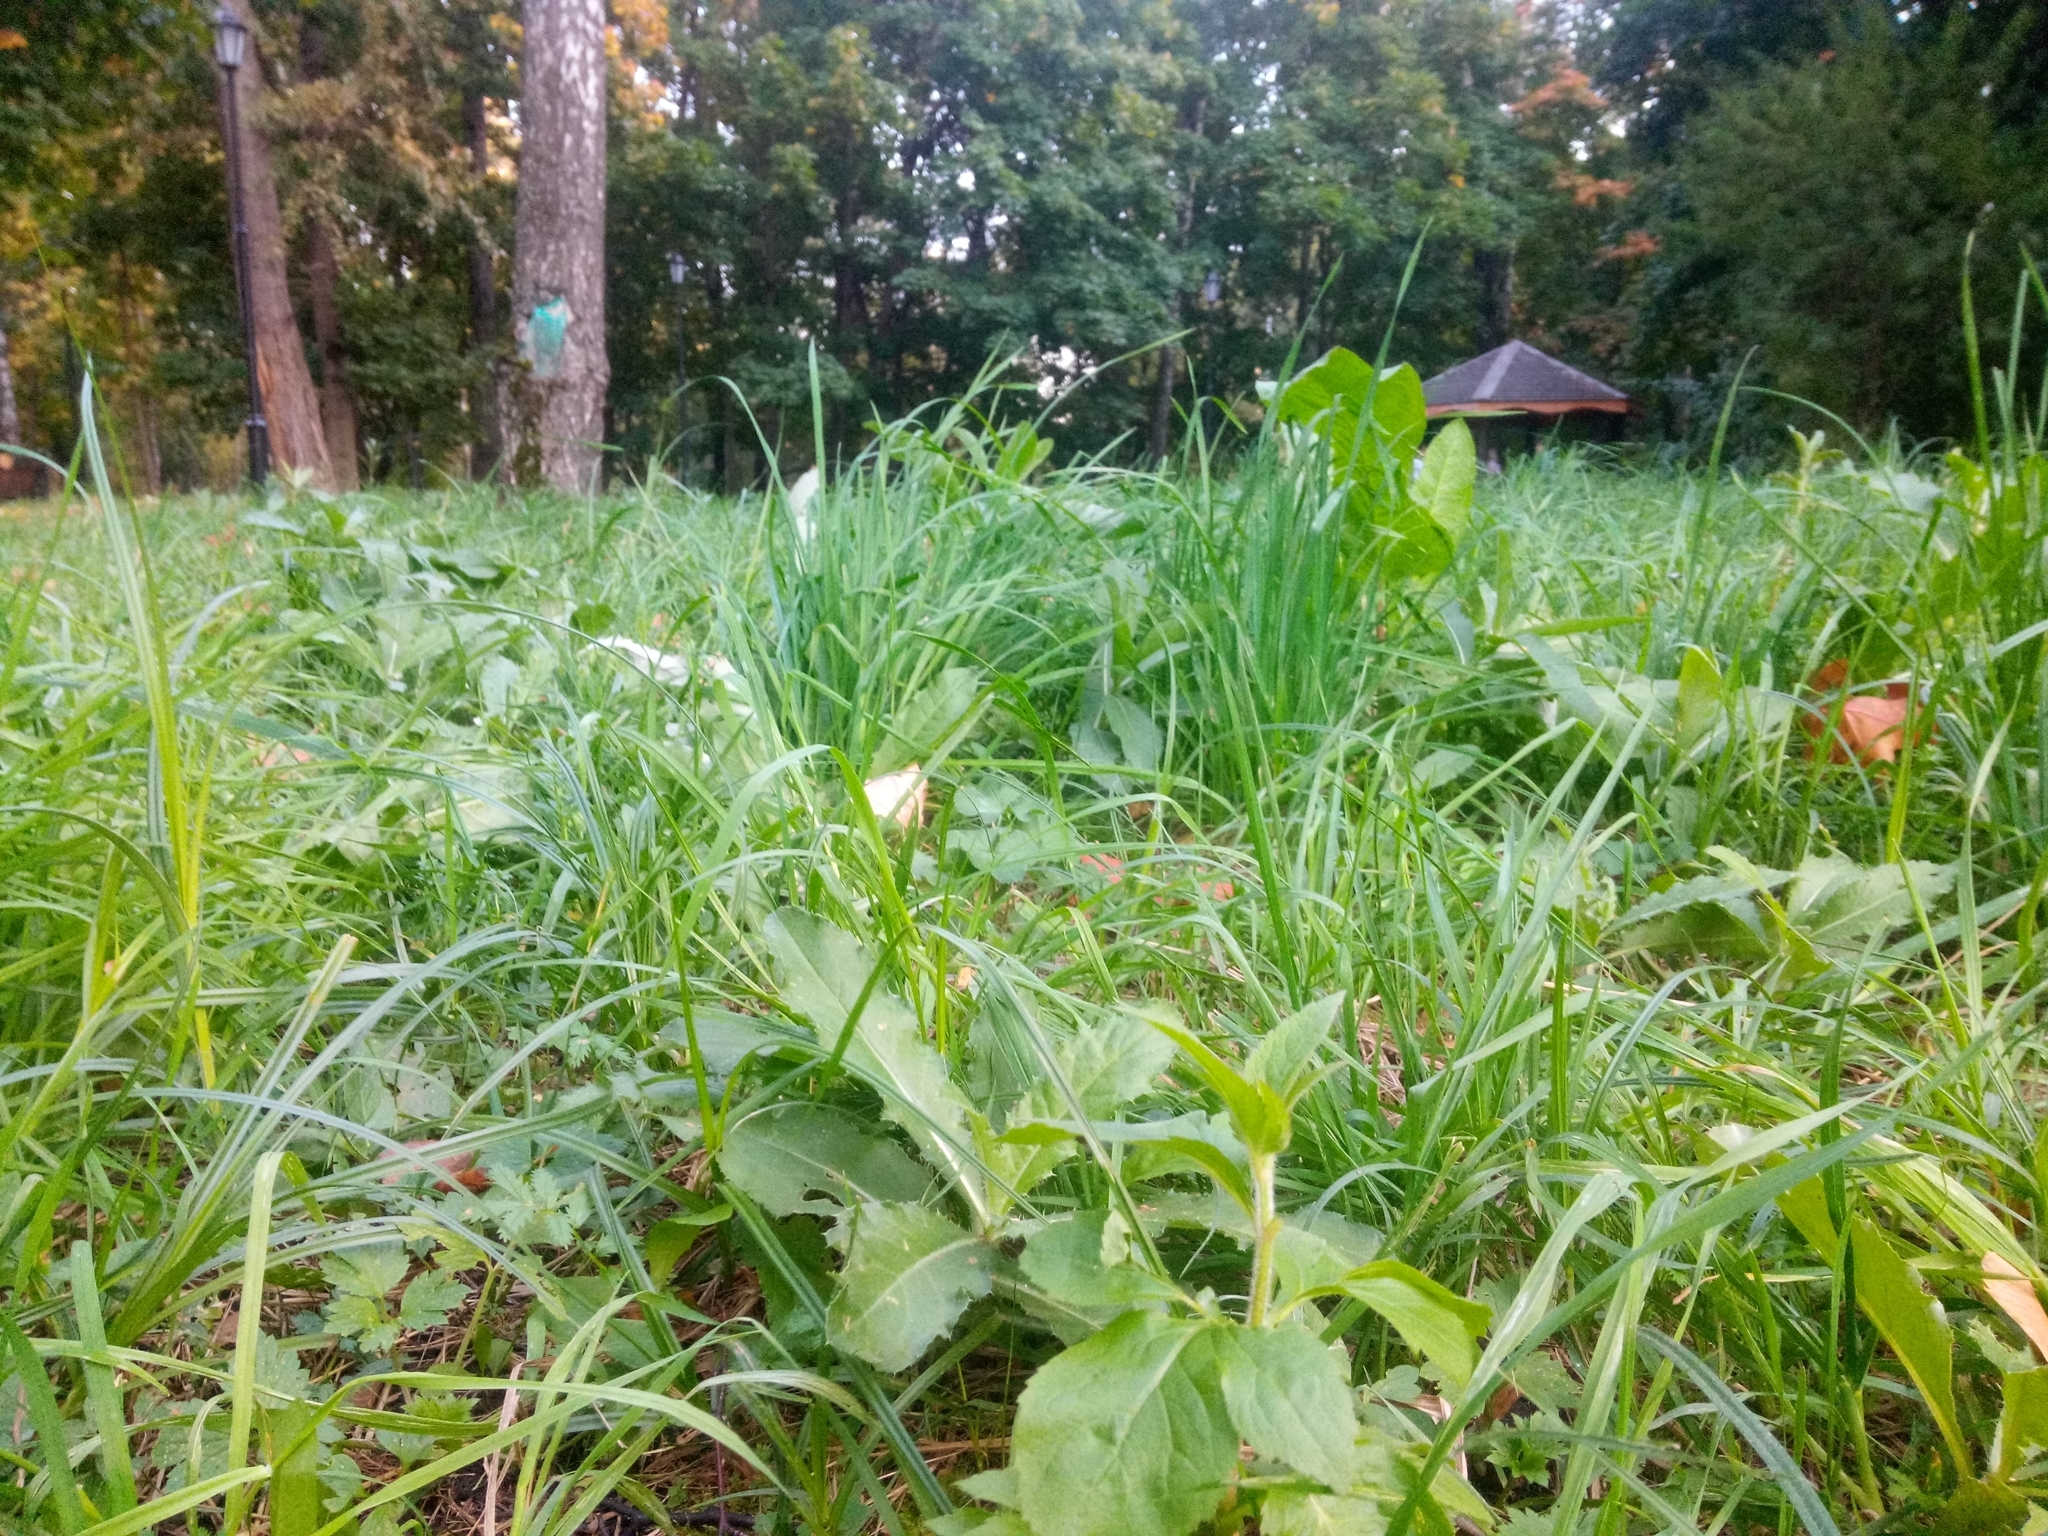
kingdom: Plantae
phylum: Tracheophyta
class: Magnoliopsida
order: Asterales
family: Asteraceae
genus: Eupatorium
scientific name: Eupatorium cannabinum
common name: Hemp-agrimony
